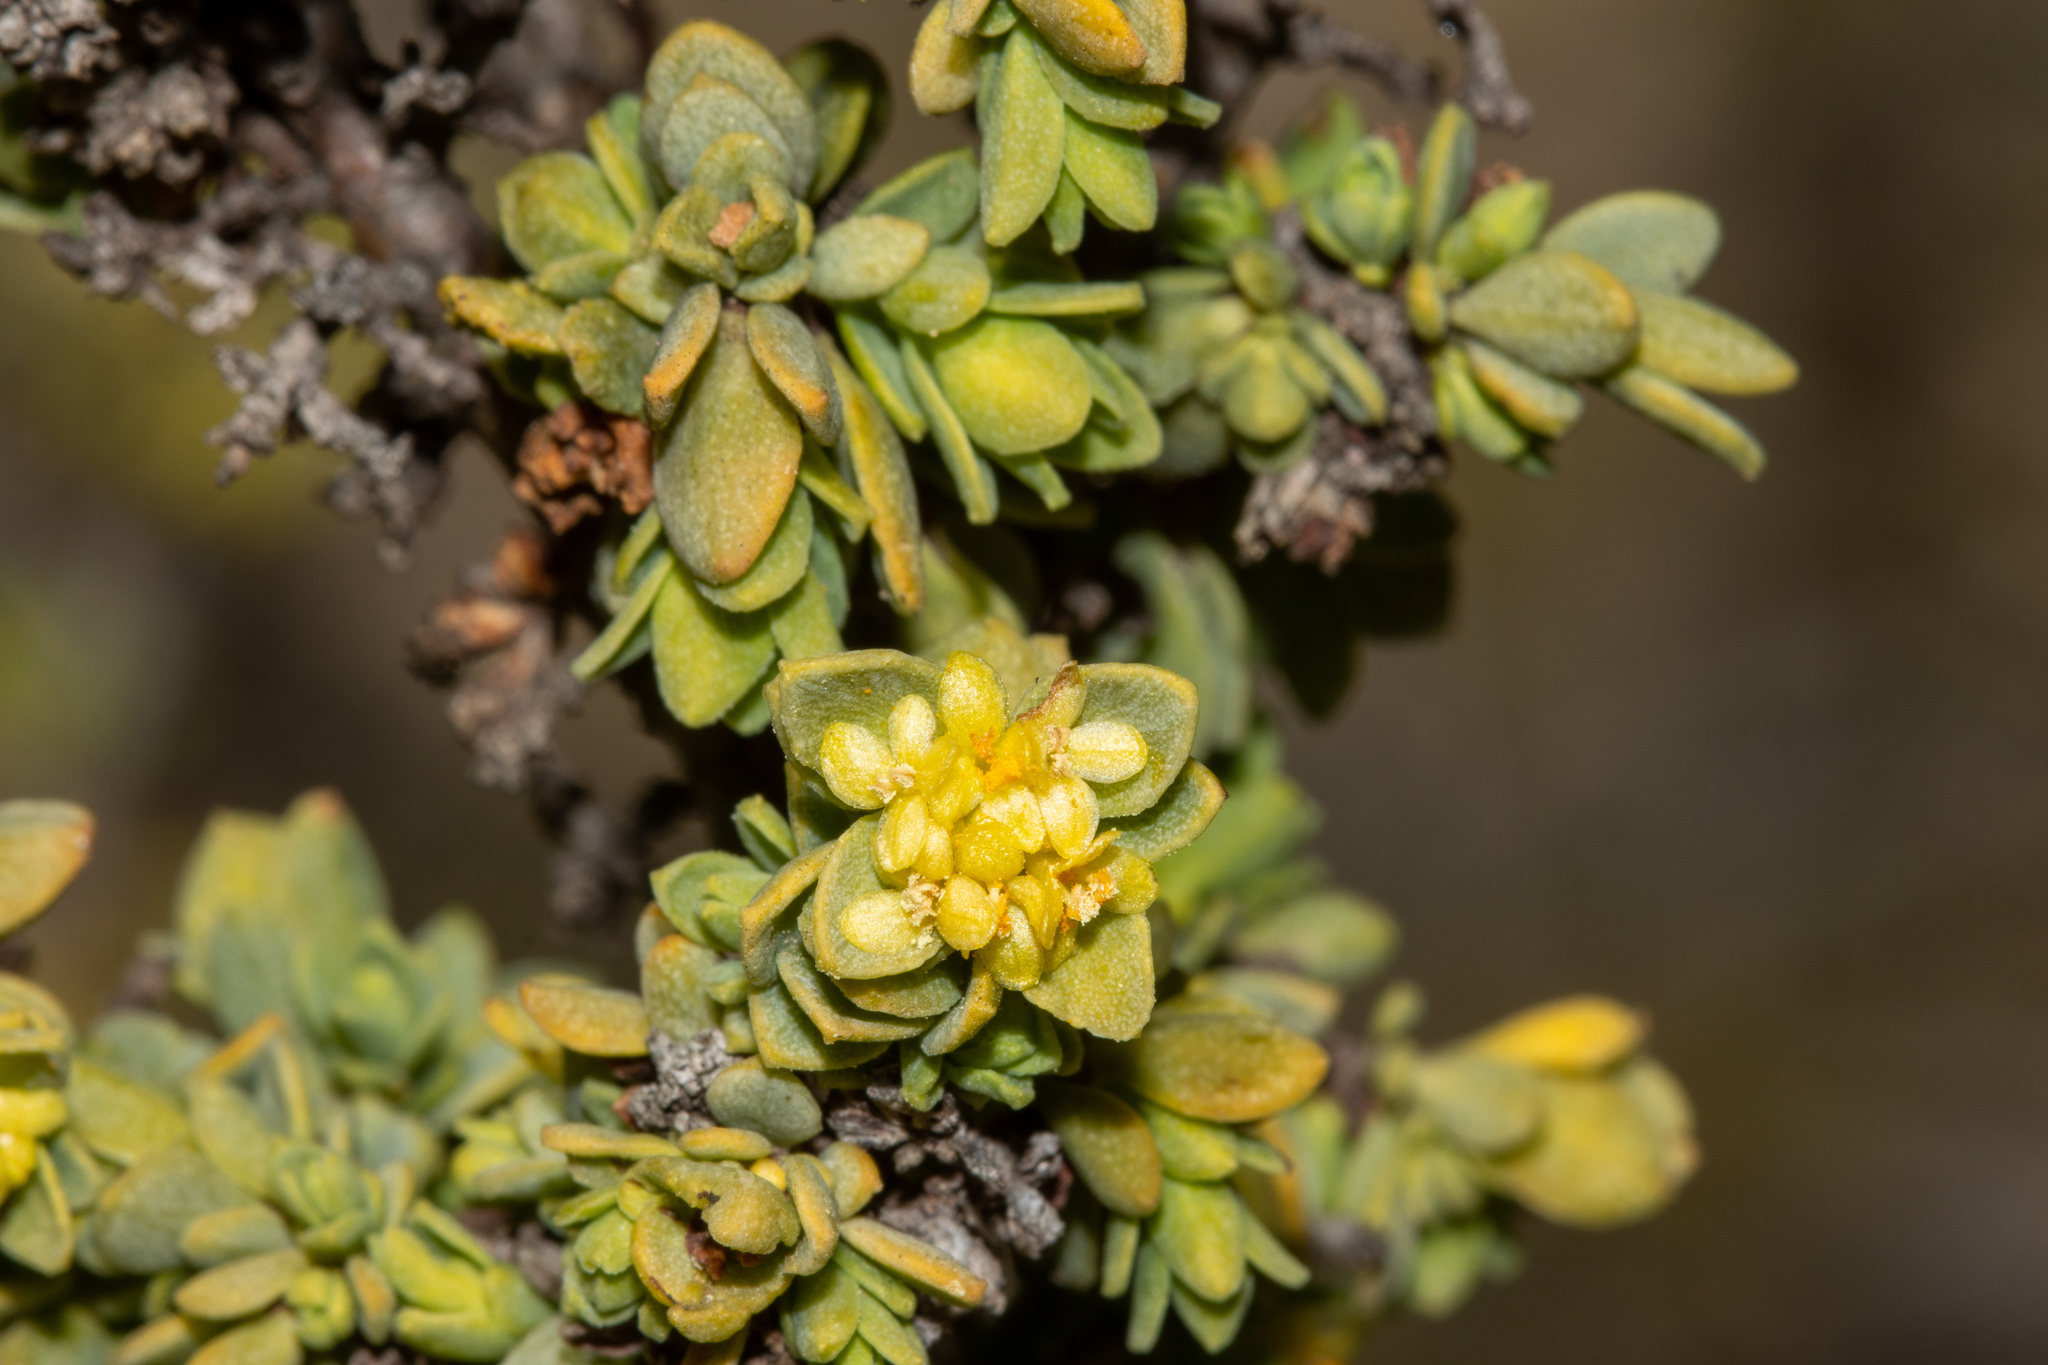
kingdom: Plantae
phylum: Tracheophyta
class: Magnoliopsida
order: Malvales
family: Thymelaeaceae
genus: Pimelea
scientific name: Pimelea serpyllifolia
